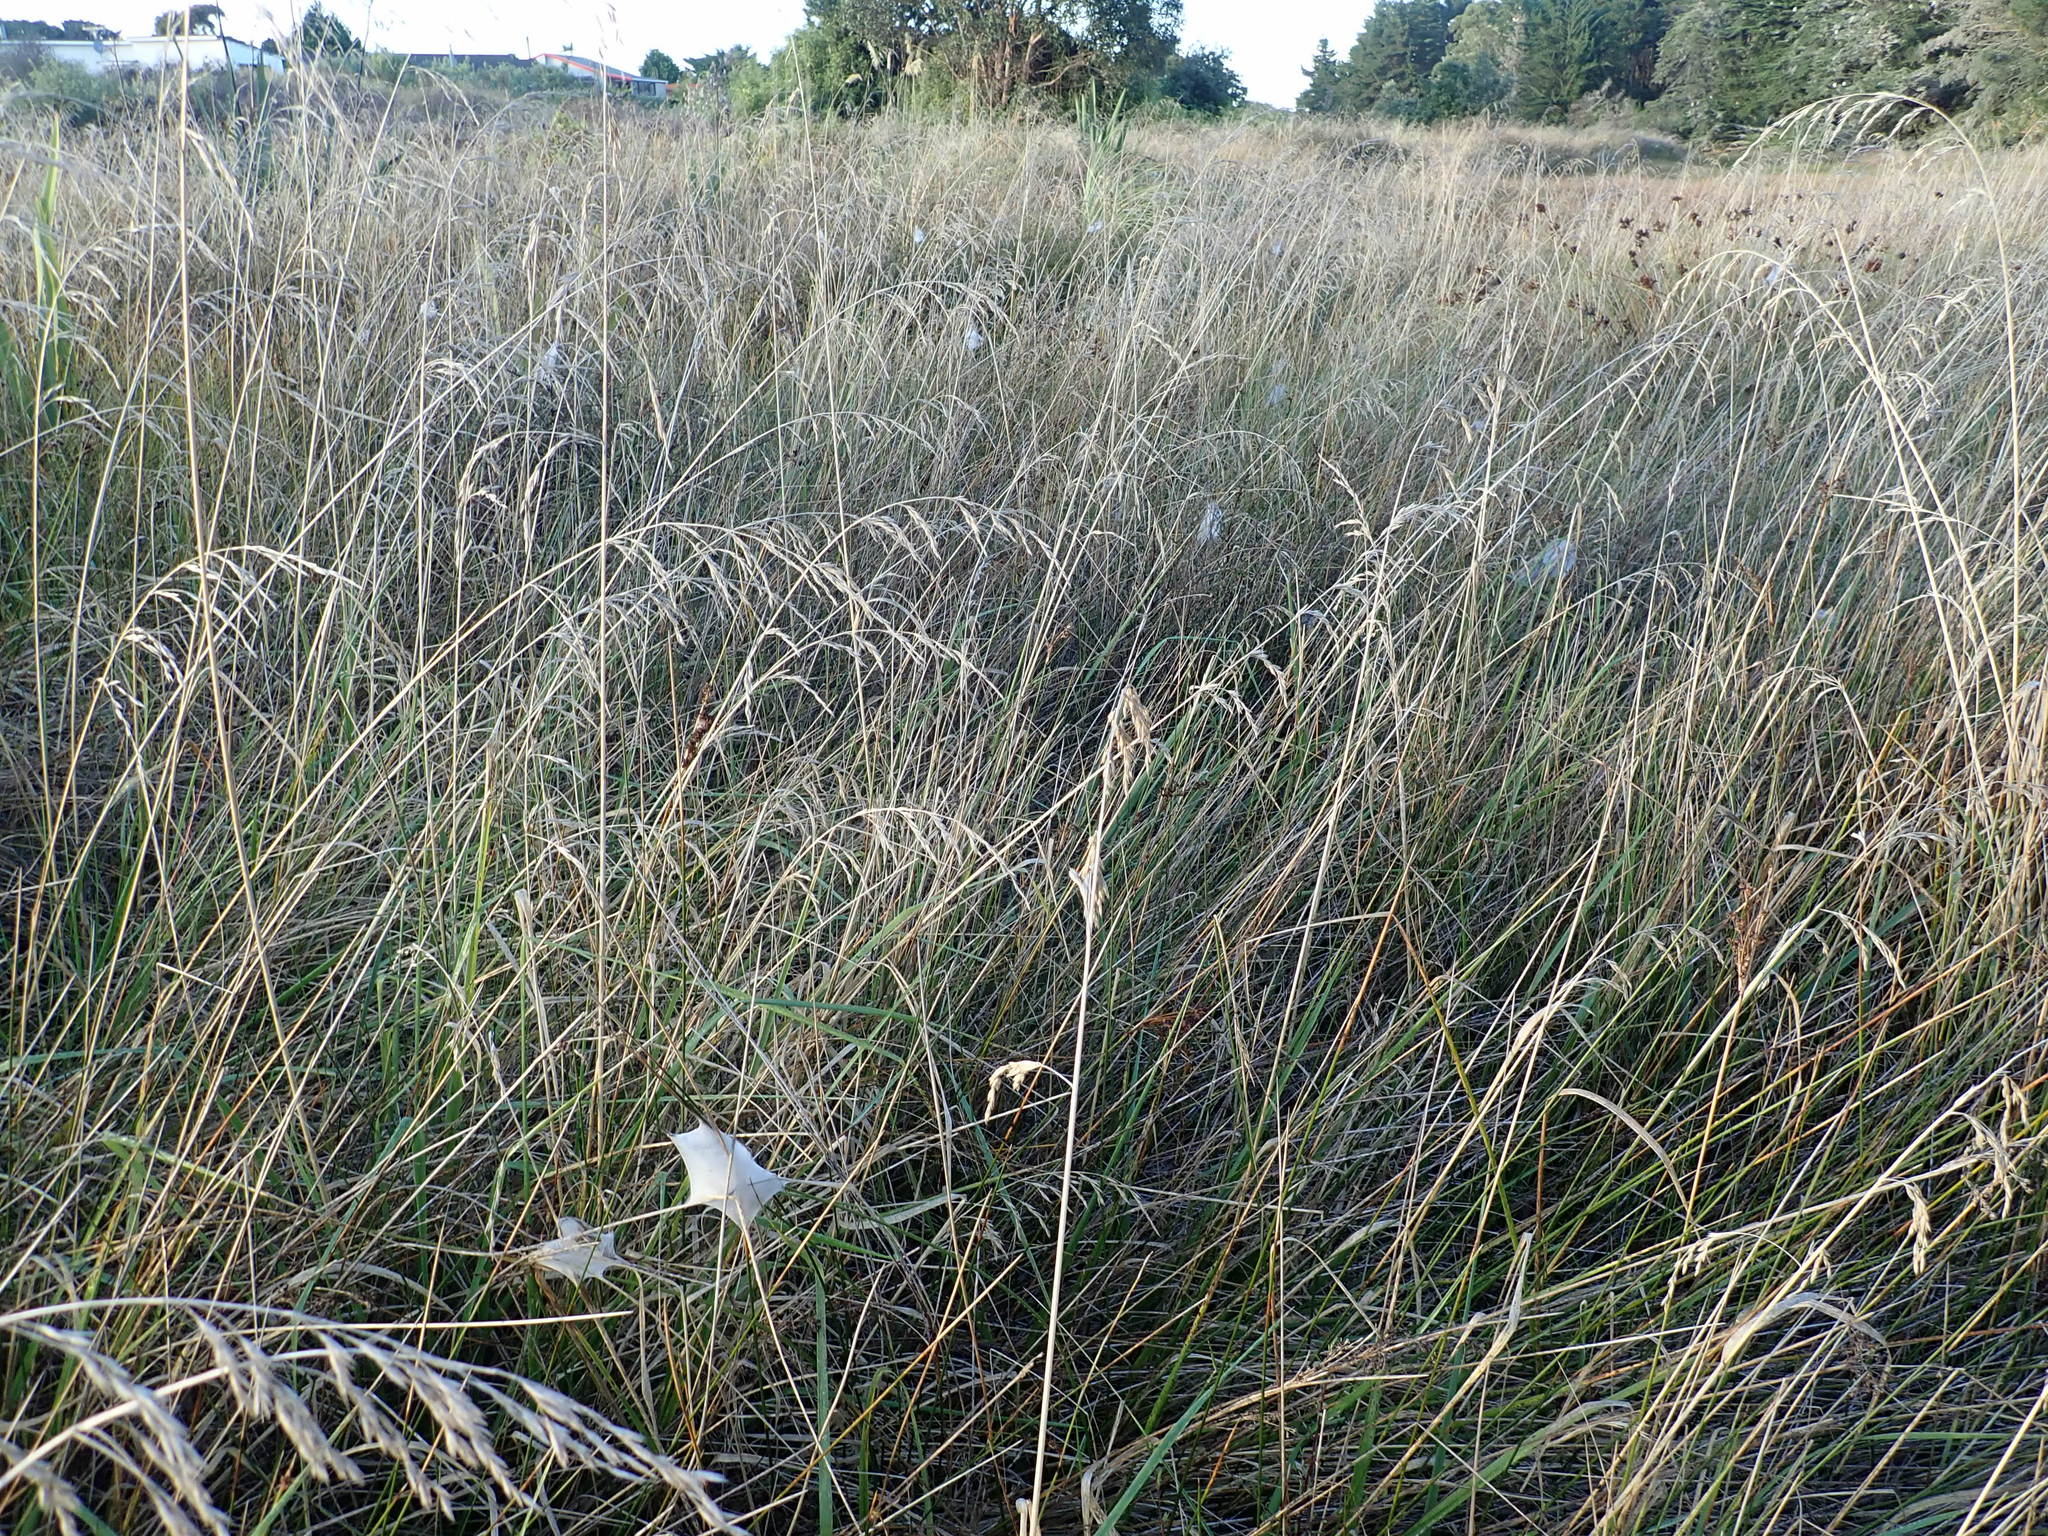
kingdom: Animalia
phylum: Arthropoda
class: Arachnida
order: Araneae
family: Pisauridae
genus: Dolomedes
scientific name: Dolomedes minor
